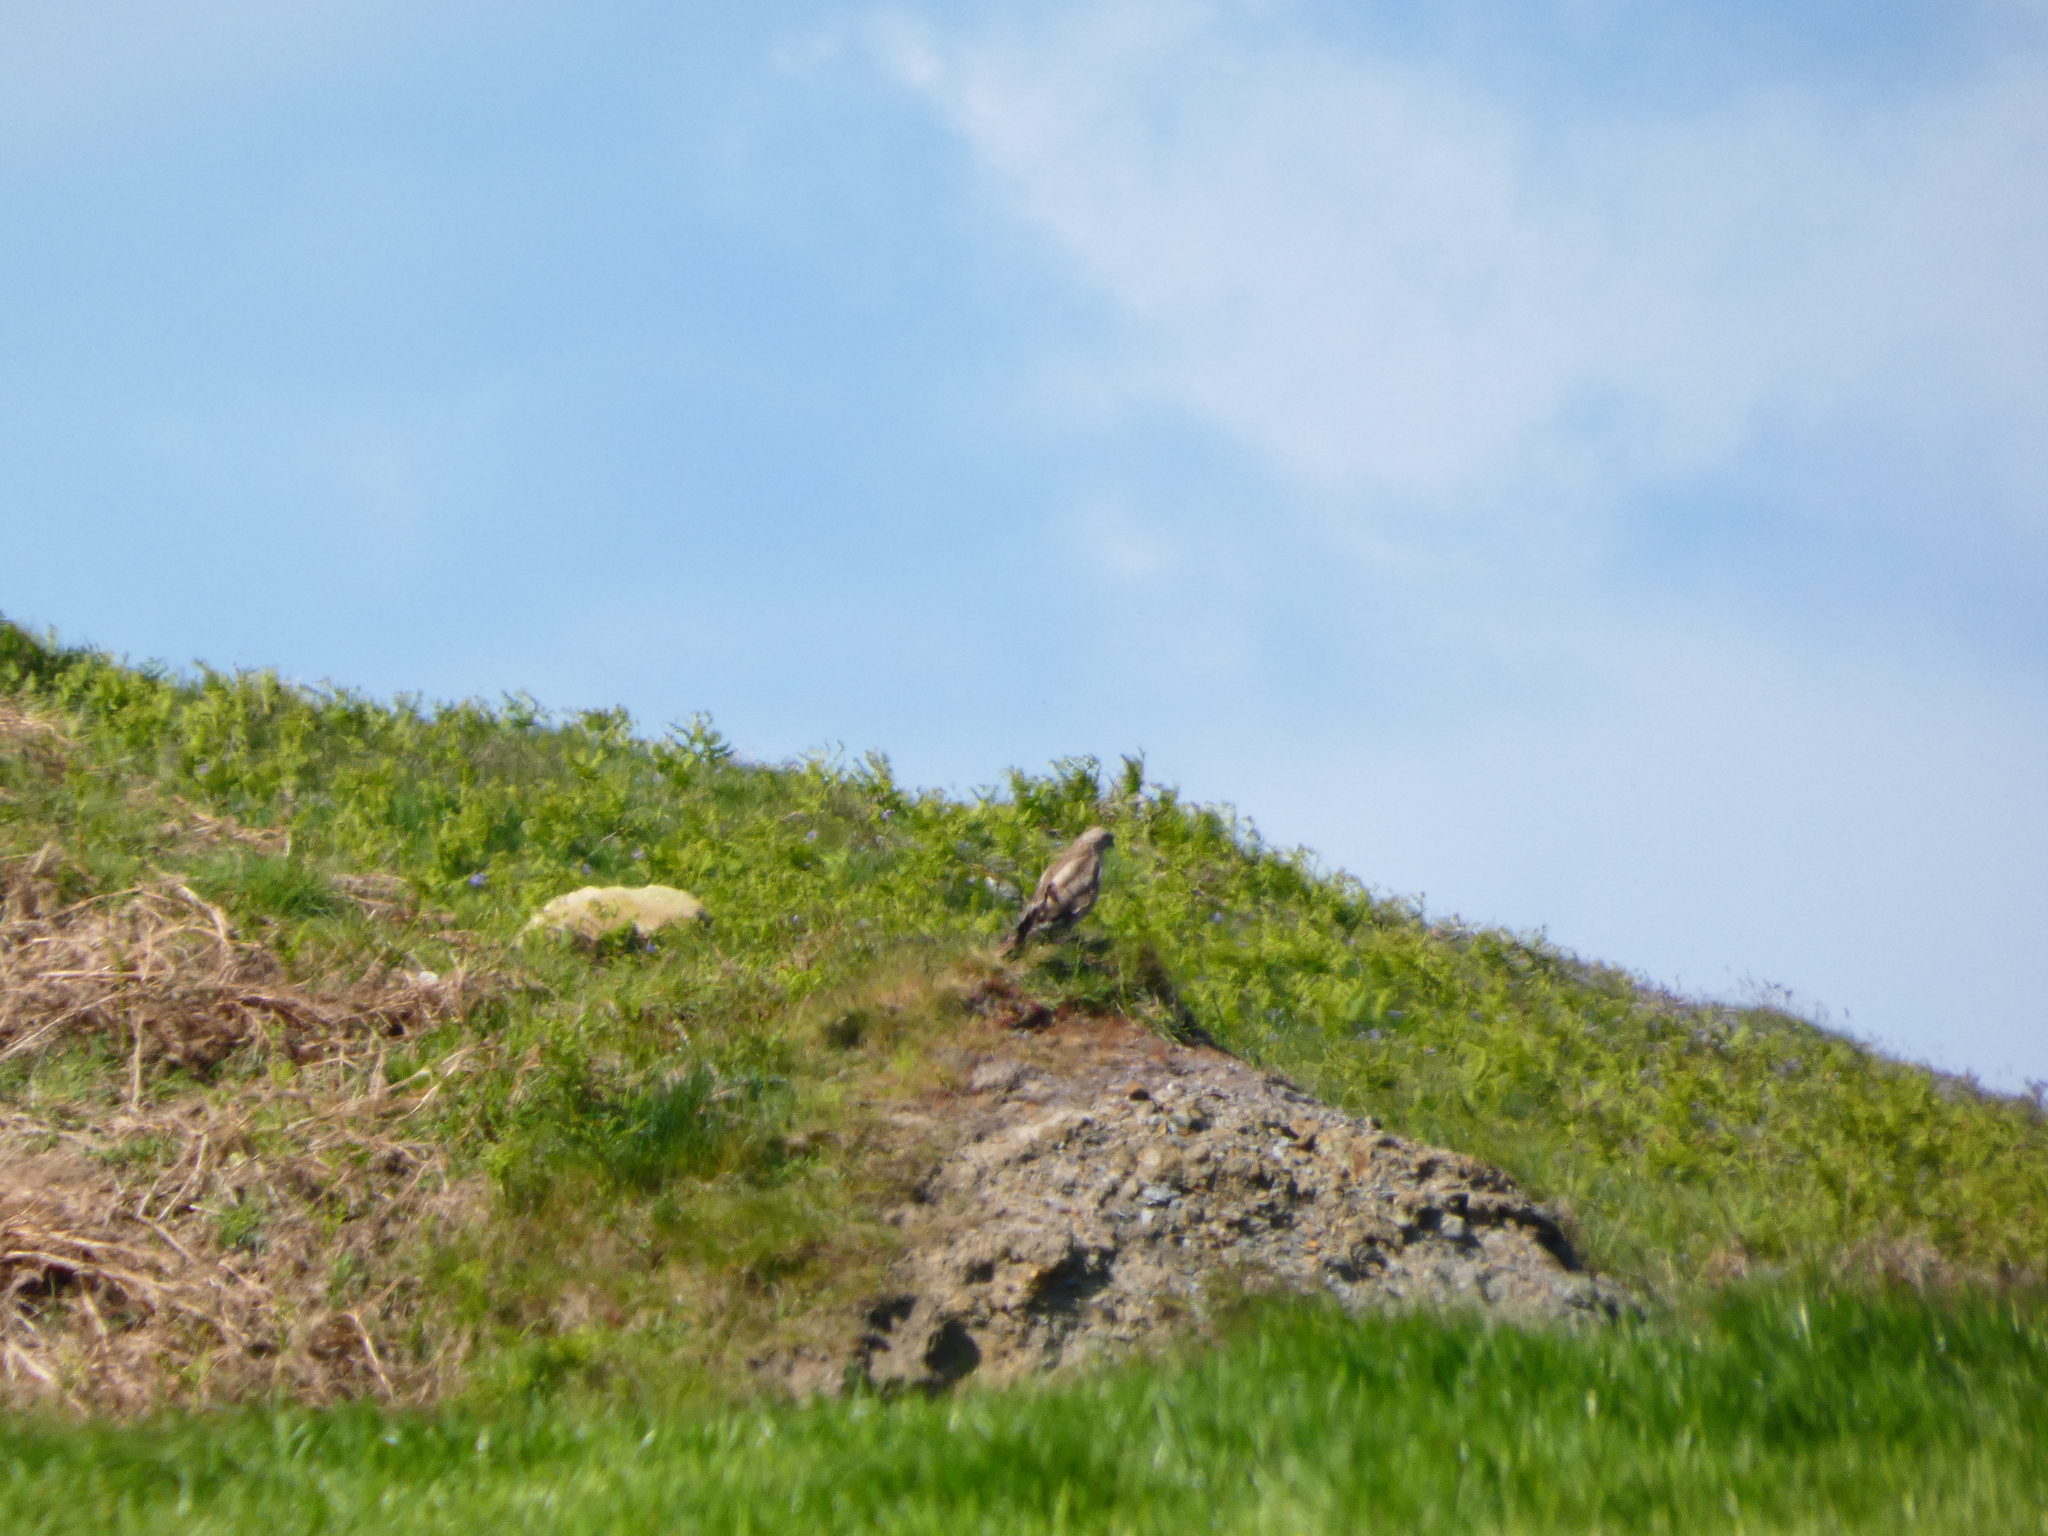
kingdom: Animalia
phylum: Chordata
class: Aves
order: Accipitriformes
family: Accipitridae
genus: Buteo
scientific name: Buteo buteo
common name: Common buzzard
